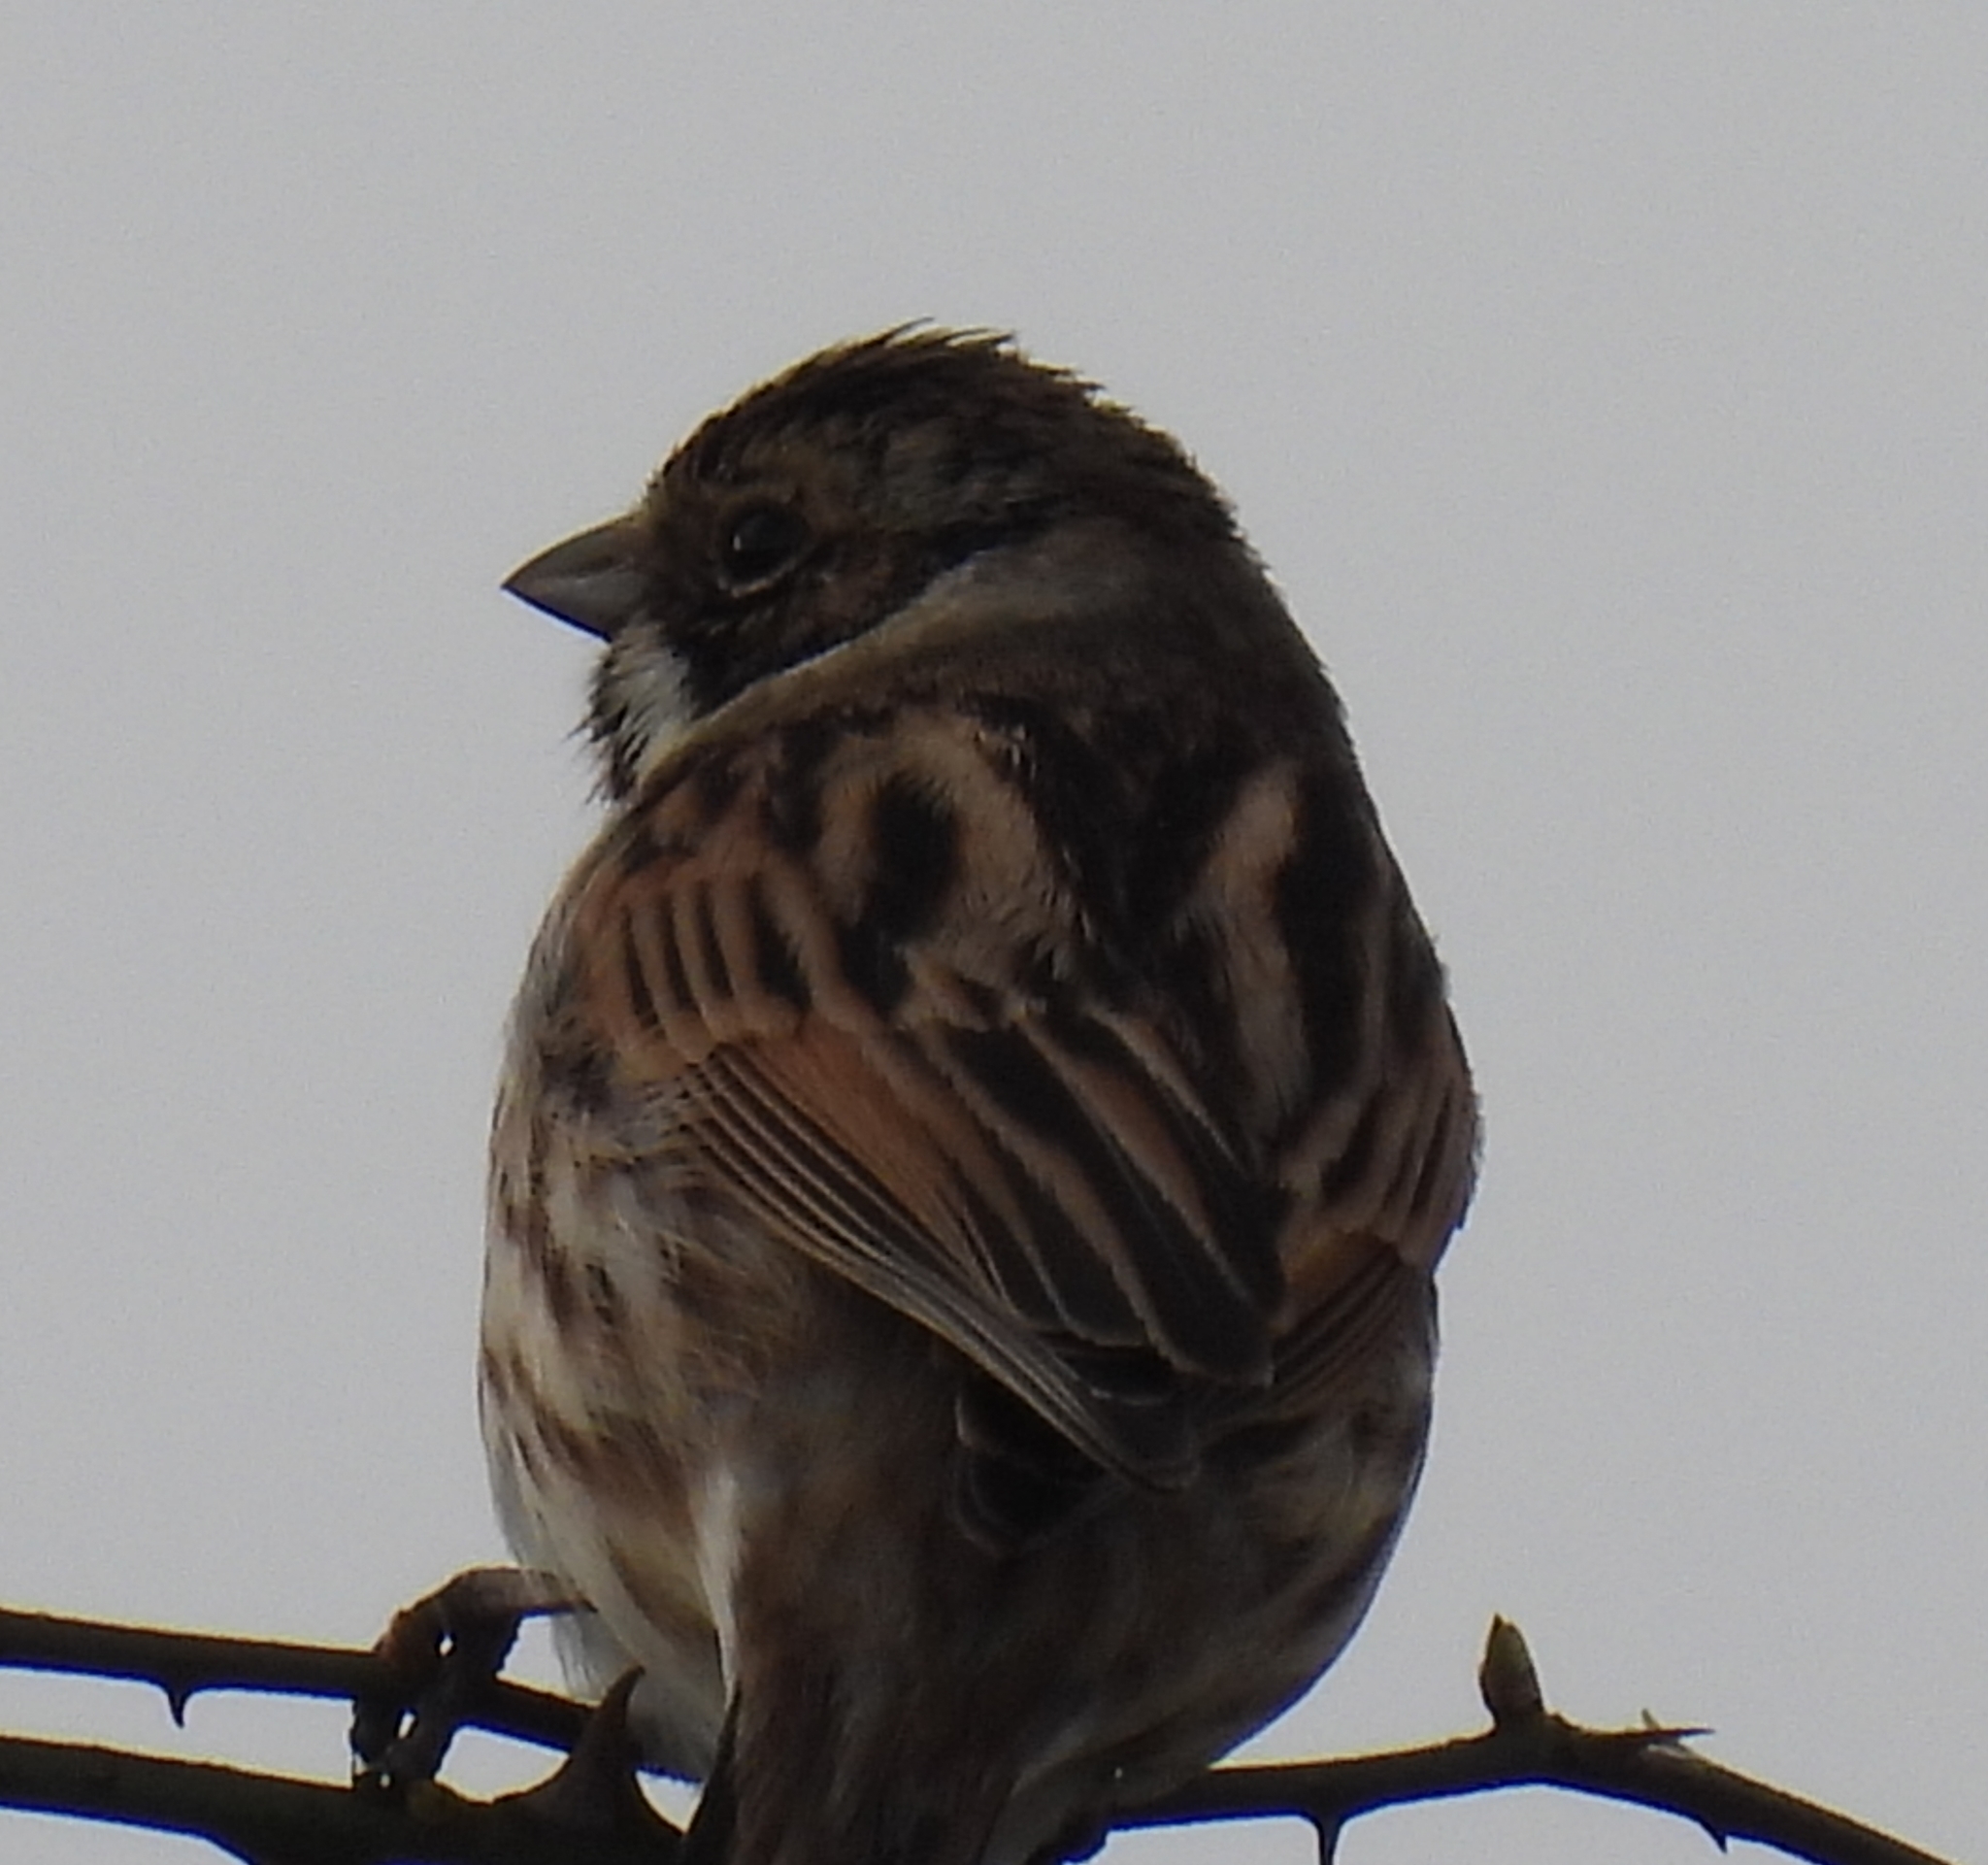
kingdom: Animalia
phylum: Chordata
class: Aves
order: Passeriformes
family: Emberizidae
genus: Emberiza
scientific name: Emberiza schoeniclus
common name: Reed bunting
